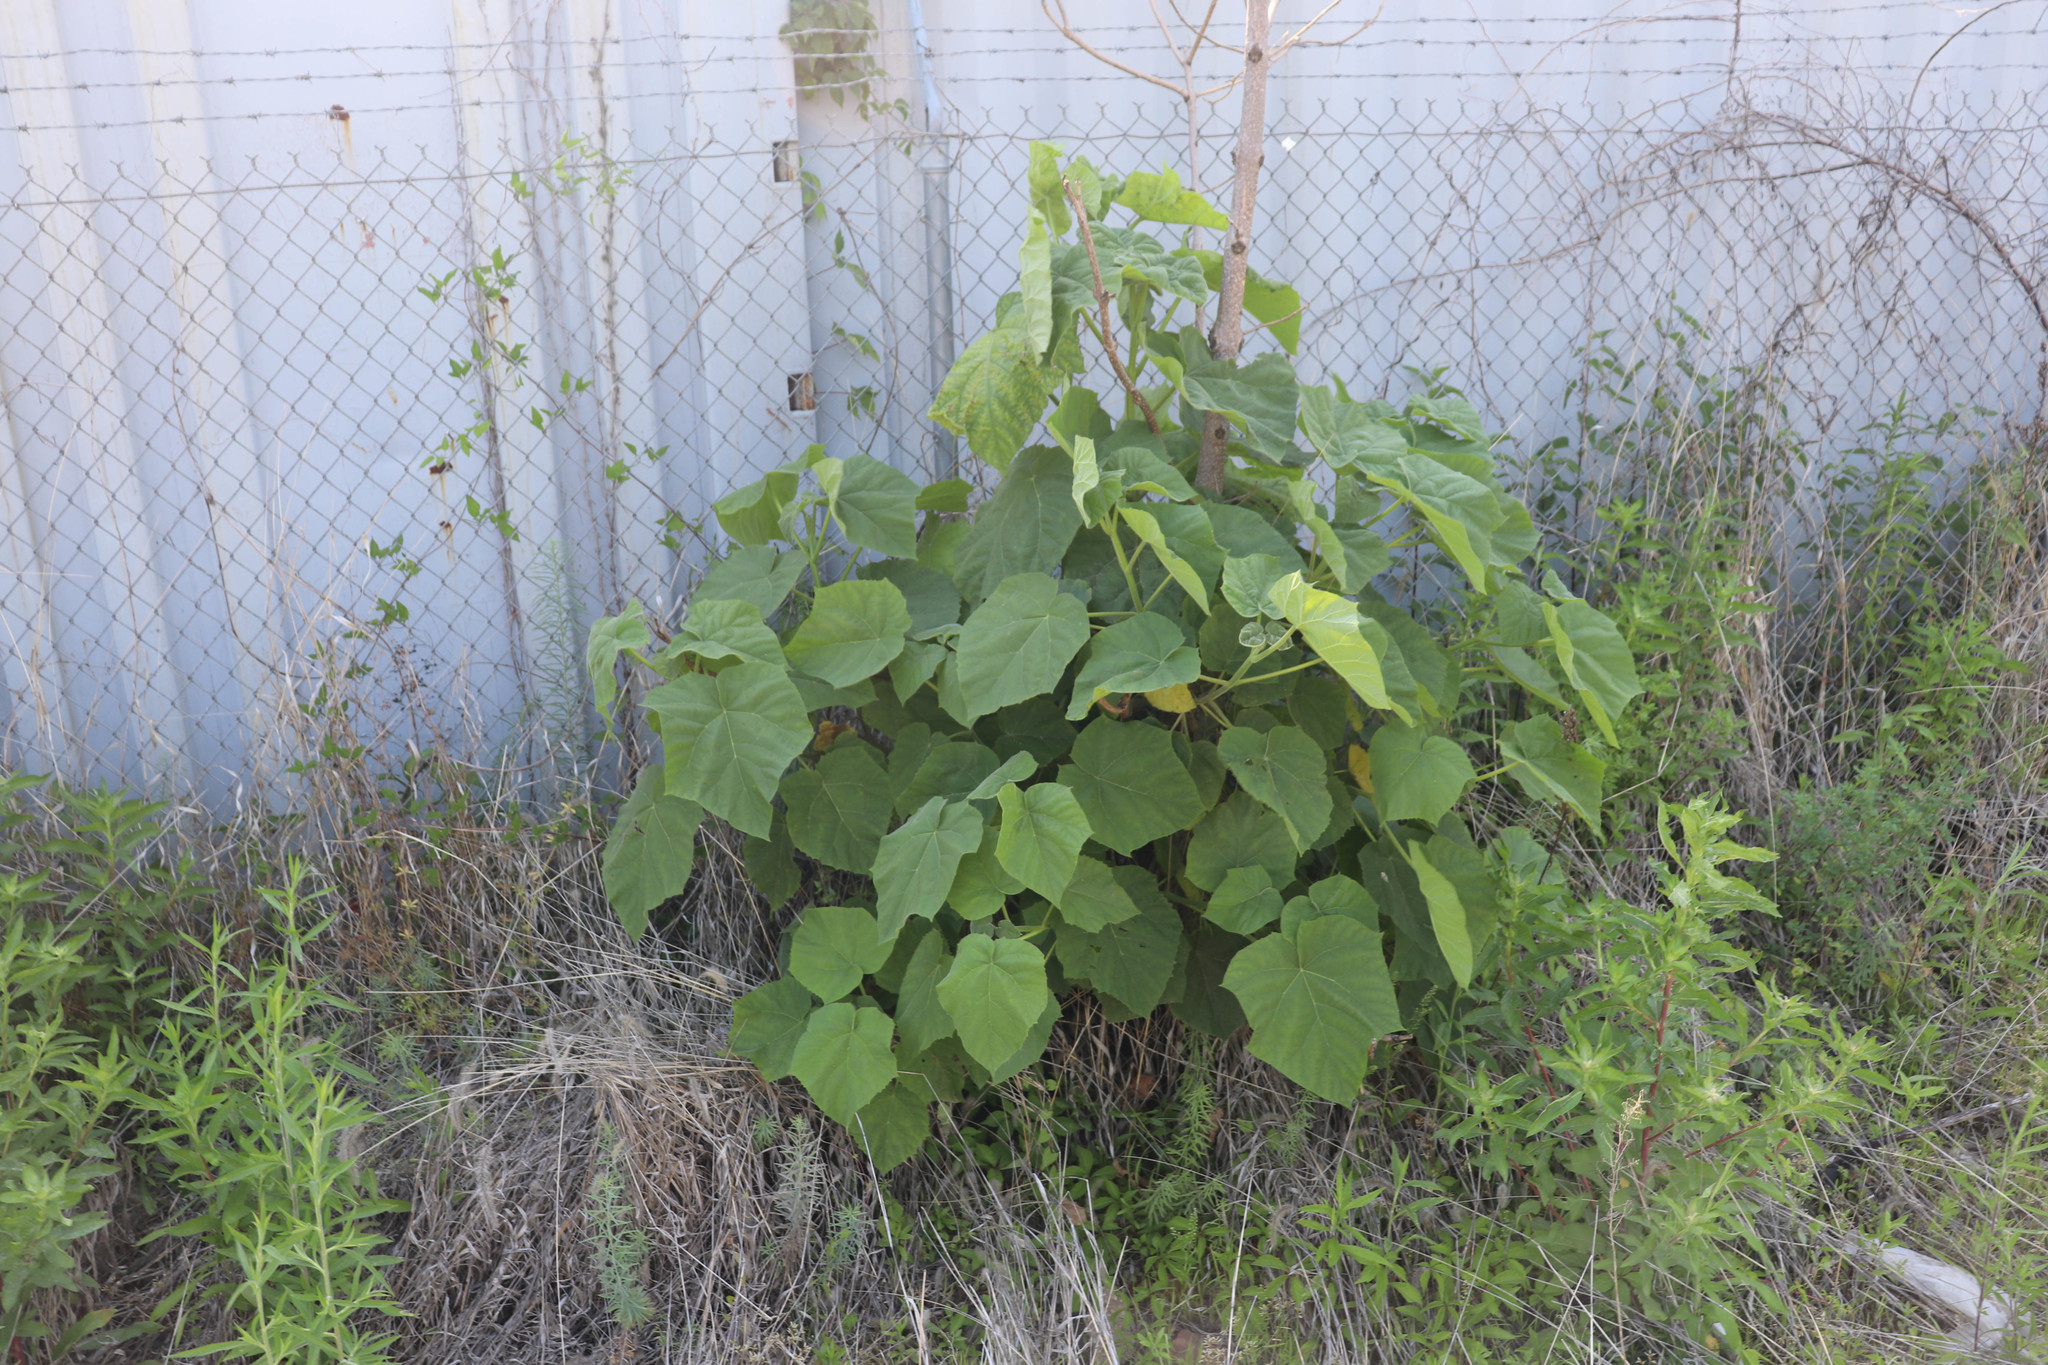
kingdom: Plantae
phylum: Tracheophyta
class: Magnoliopsida
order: Lamiales
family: Paulowniaceae
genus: Paulownia
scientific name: Paulownia tomentosa
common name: Foxglove-tree
